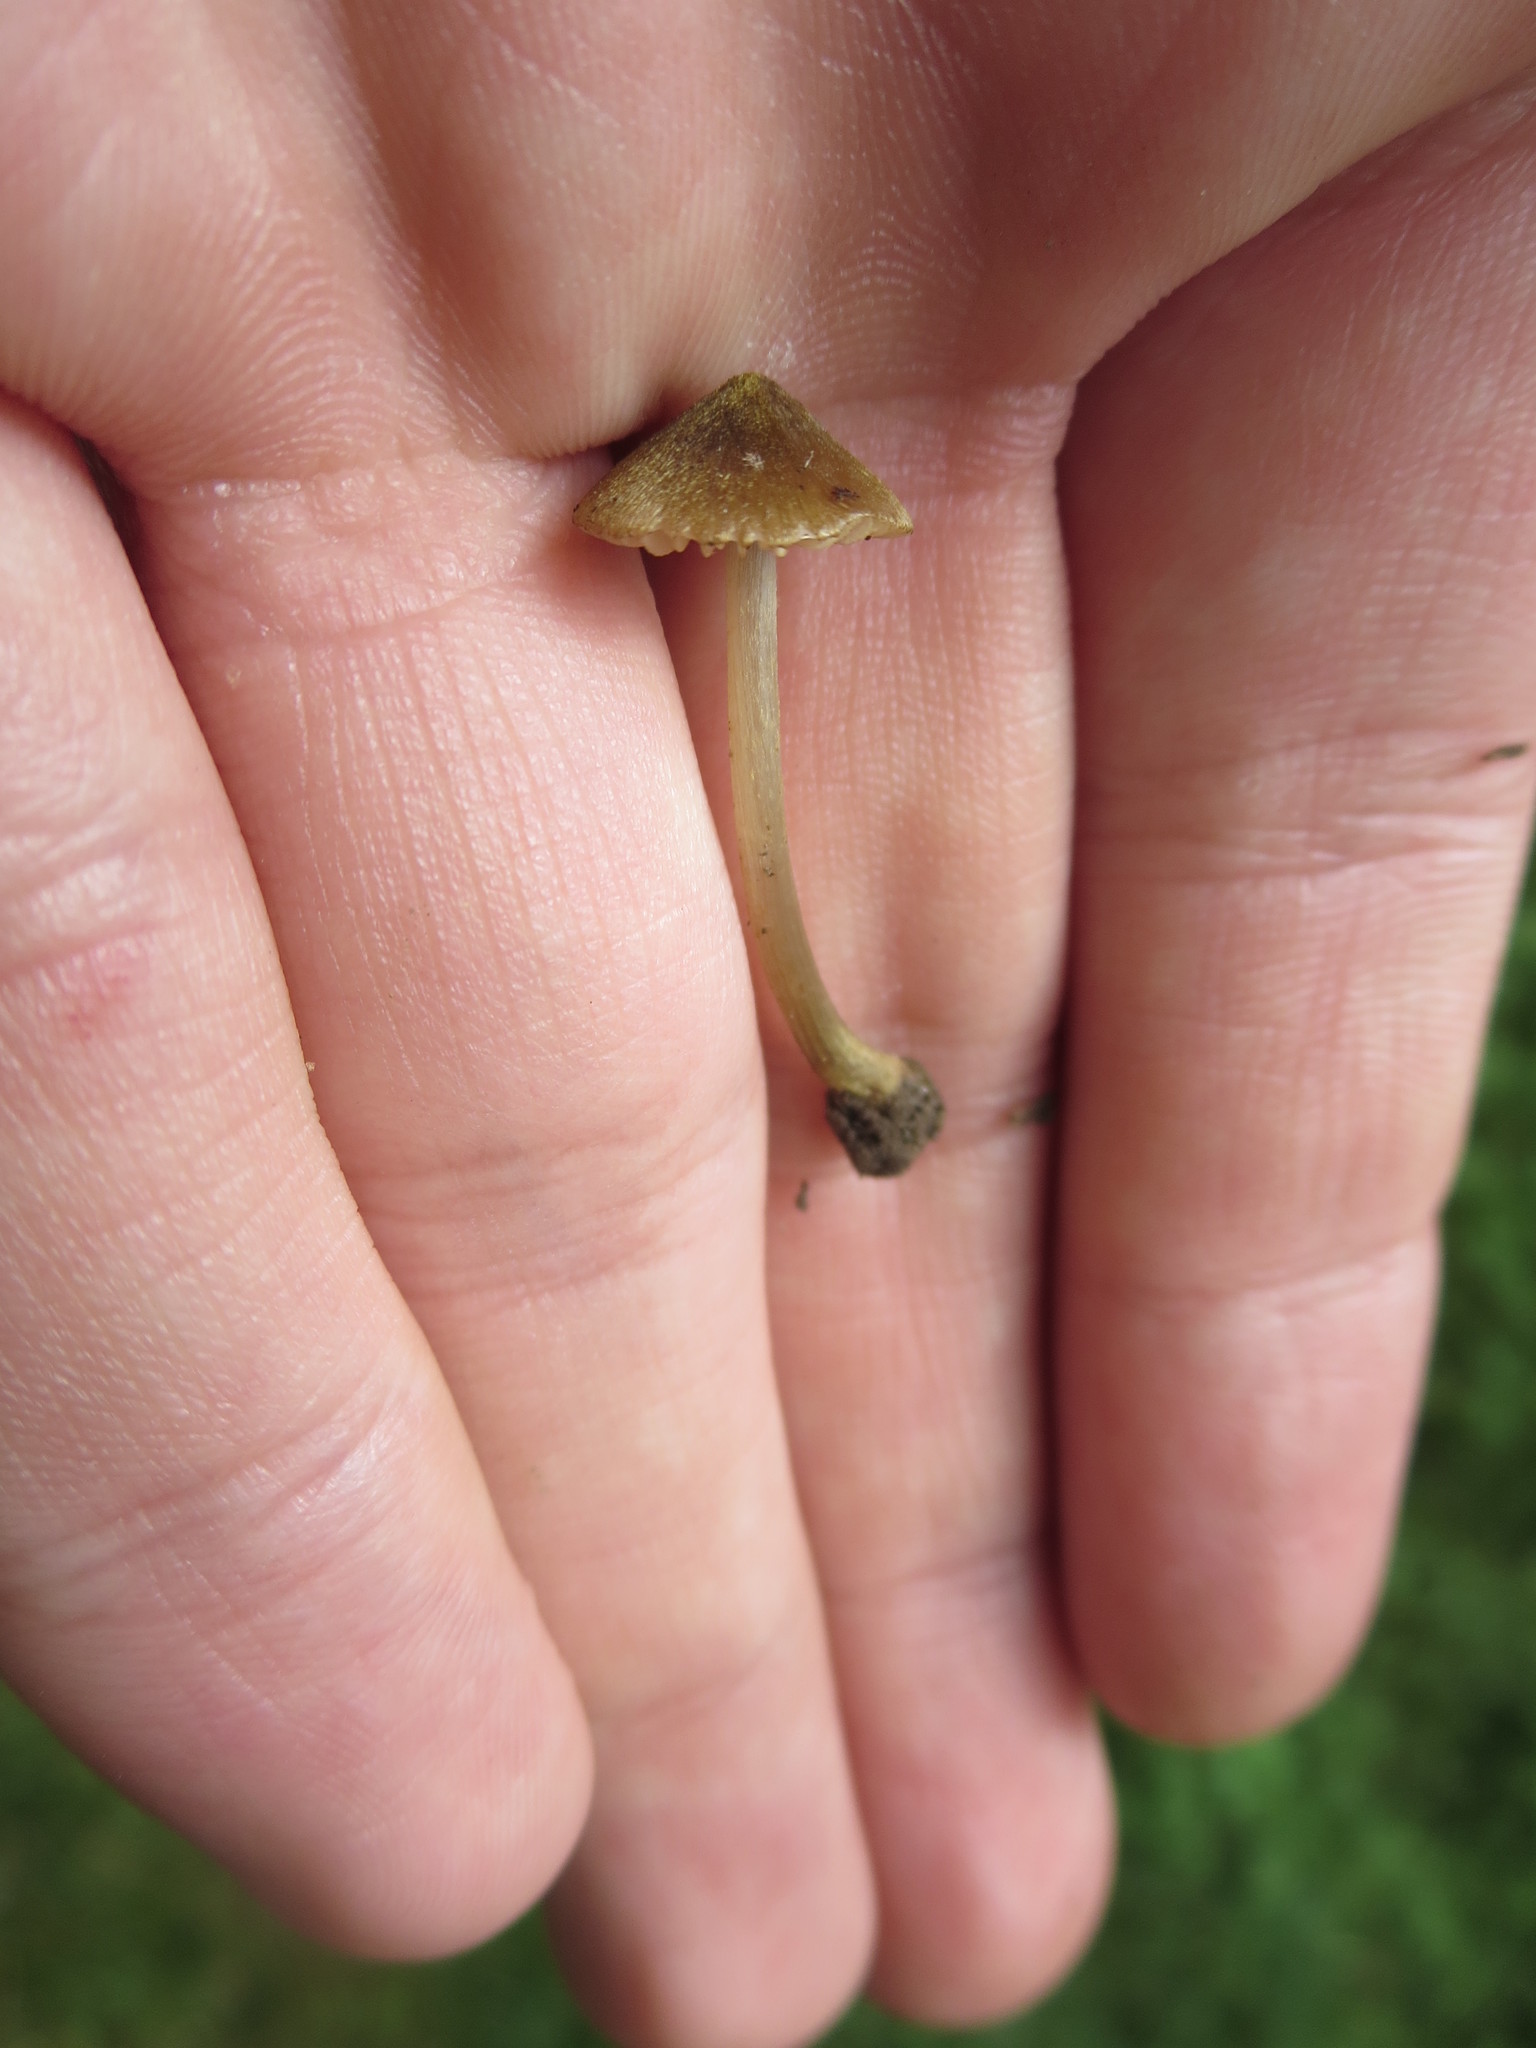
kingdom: Fungi
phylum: Basidiomycota
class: Agaricomycetes
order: Agaricales
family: Entolomataceae
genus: Entoloma
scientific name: Entoloma flavoviride
